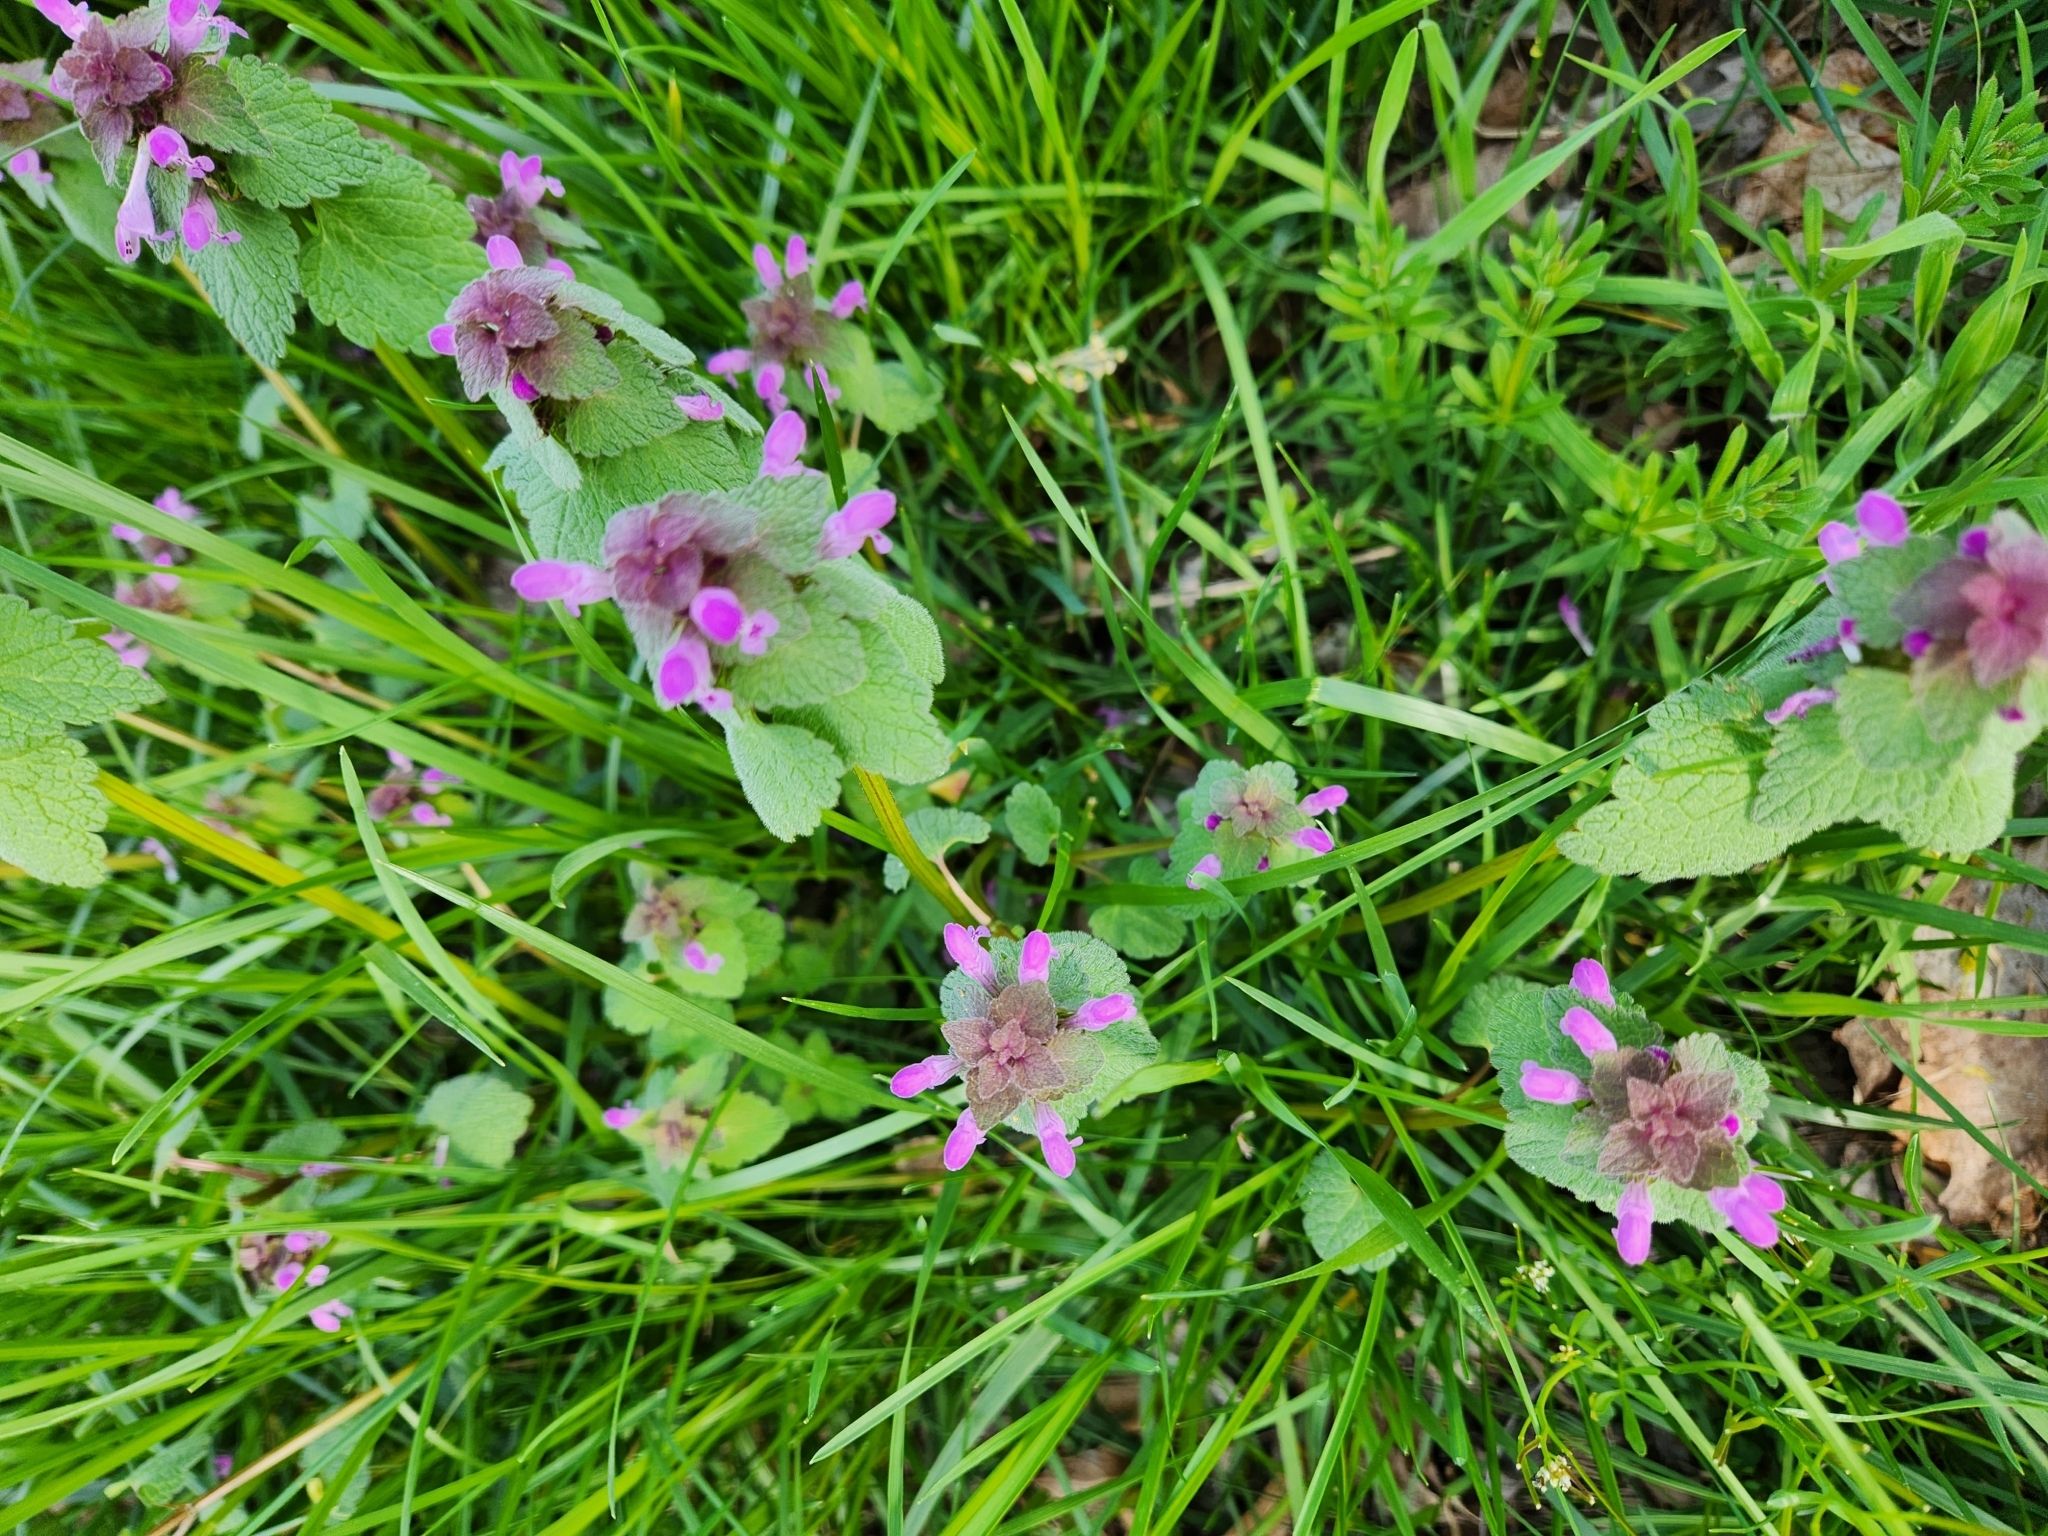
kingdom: Plantae
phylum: Tracheophyta
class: Magnoliopsida
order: Lamiales
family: Lamiaceae
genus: Lamium
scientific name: Lamium purpureum
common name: Red dead-nettle
